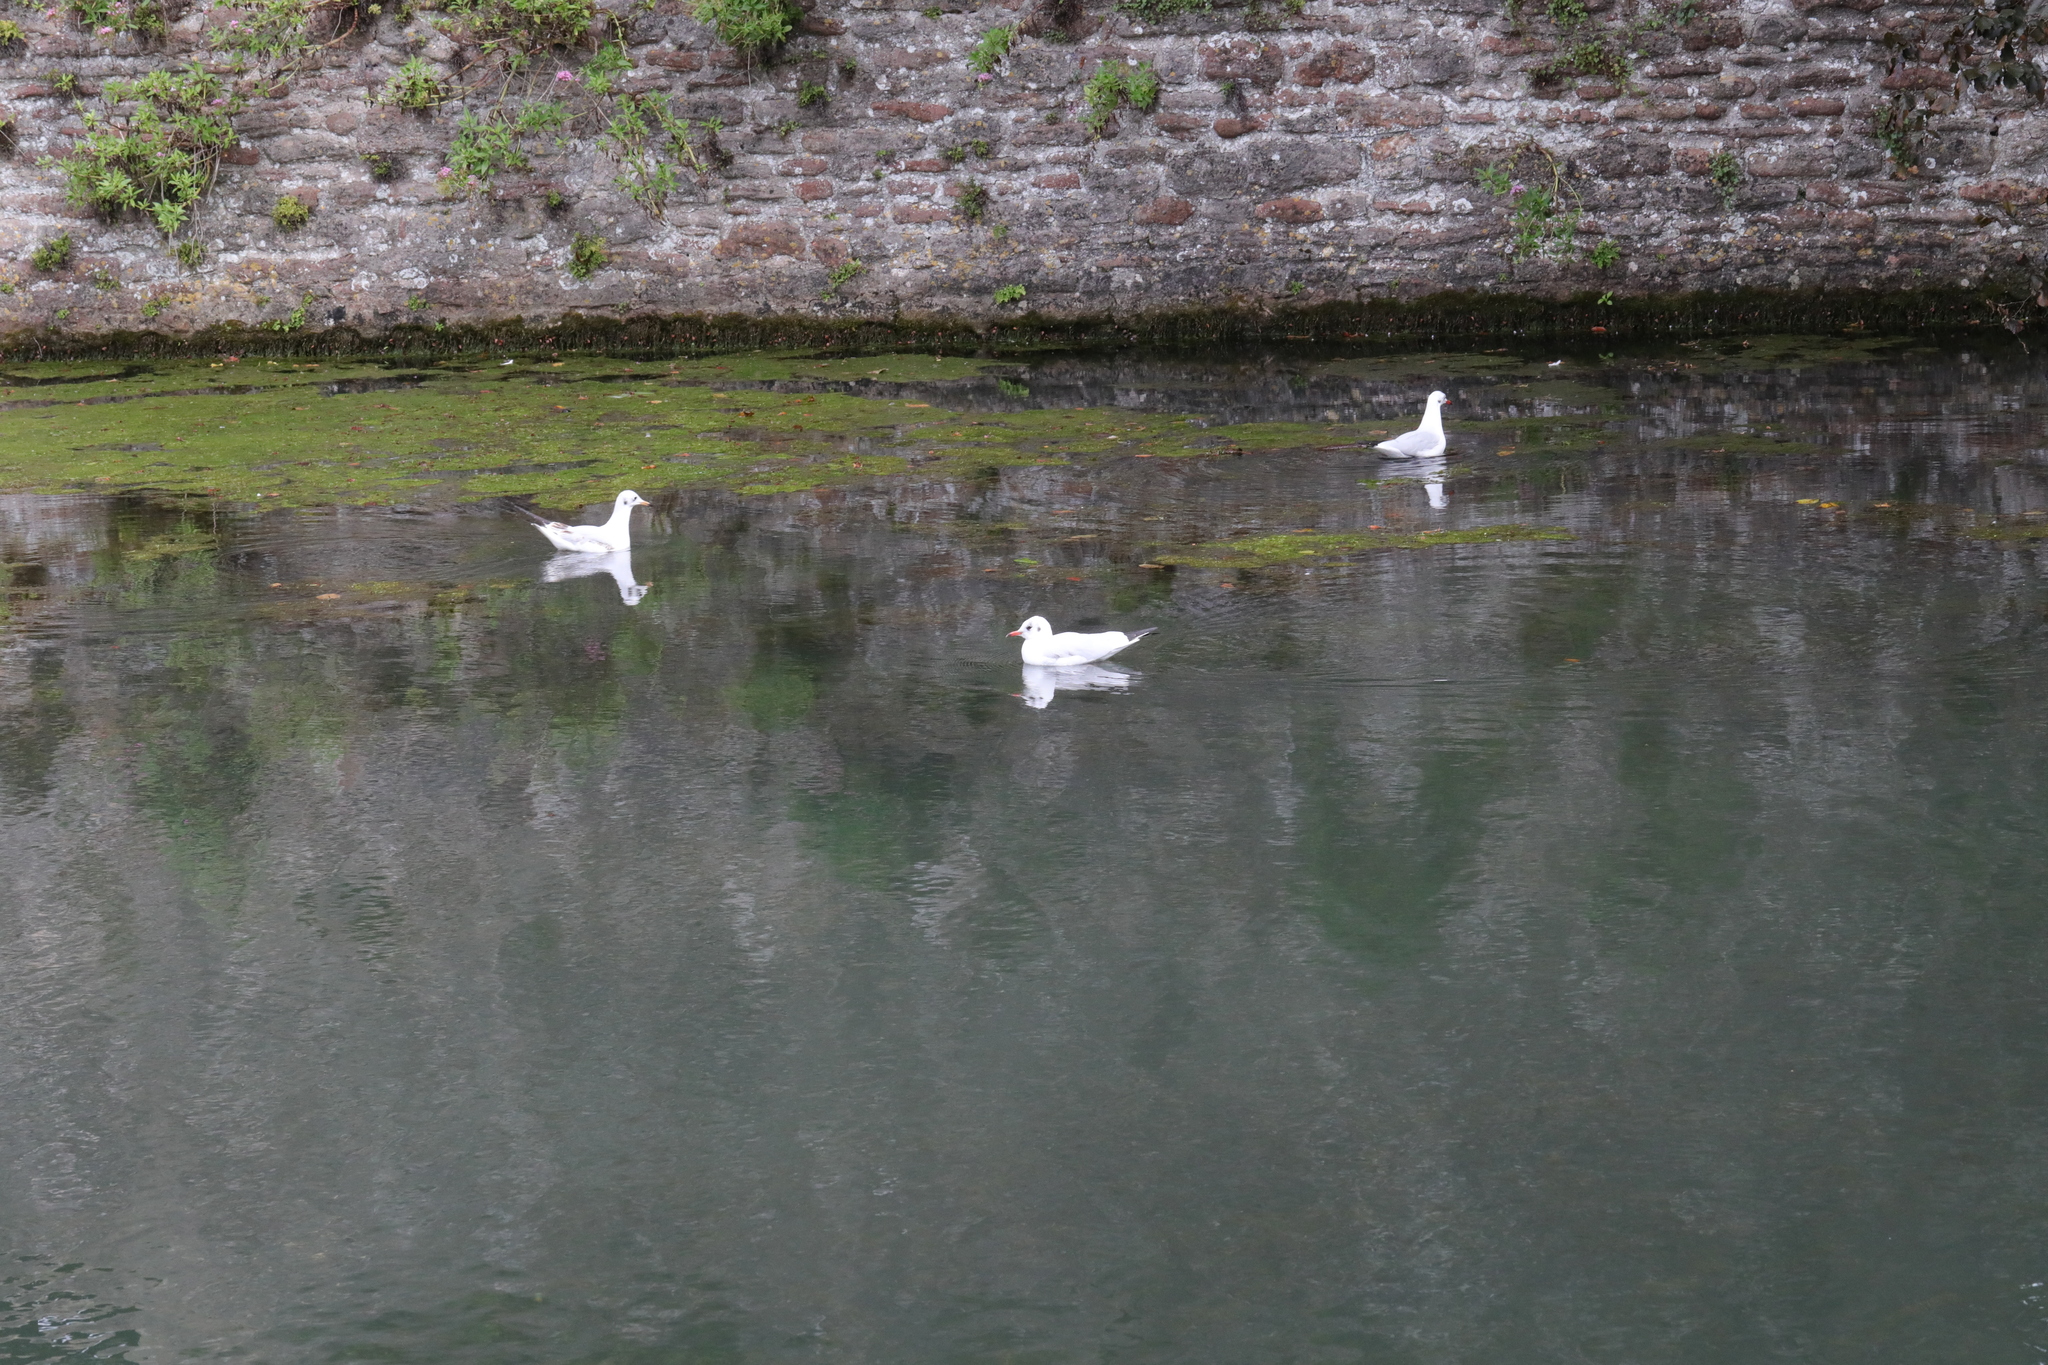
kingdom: Animalia
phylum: Chordata
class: Aves
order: Charadriiformes
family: Laridae
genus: Chroicocephalus
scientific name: Chroicocephalus ridibundus
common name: Black-headed gull
